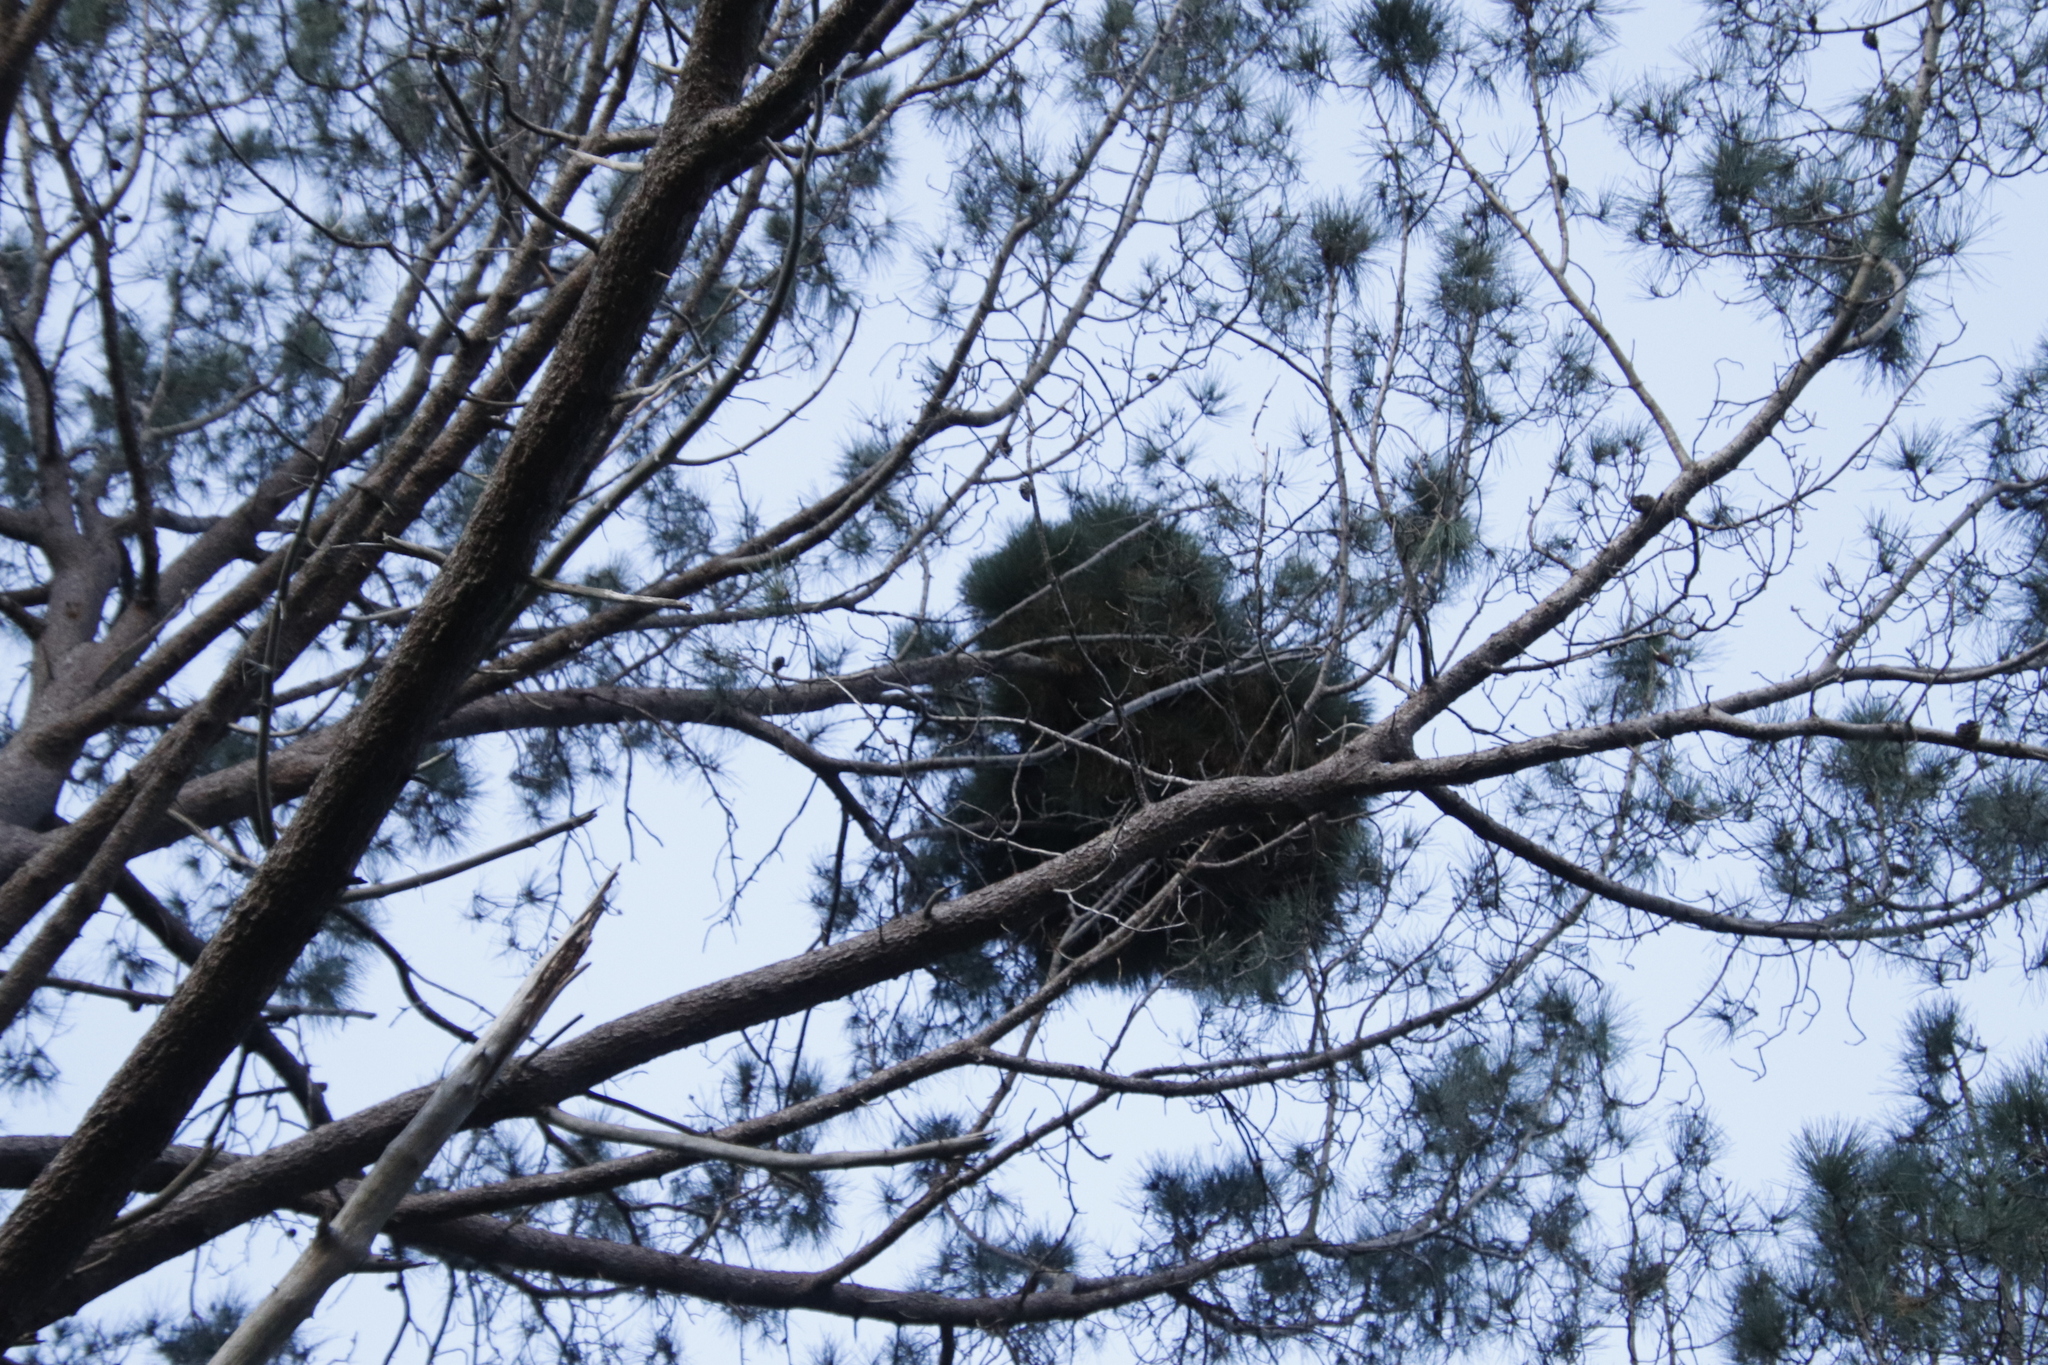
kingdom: Bacteria
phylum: Firmicutes
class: Bacilli
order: Acholeplasmatales
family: Acholeplasmataceae
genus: Phytoplasma
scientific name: Phytoplasma pini
